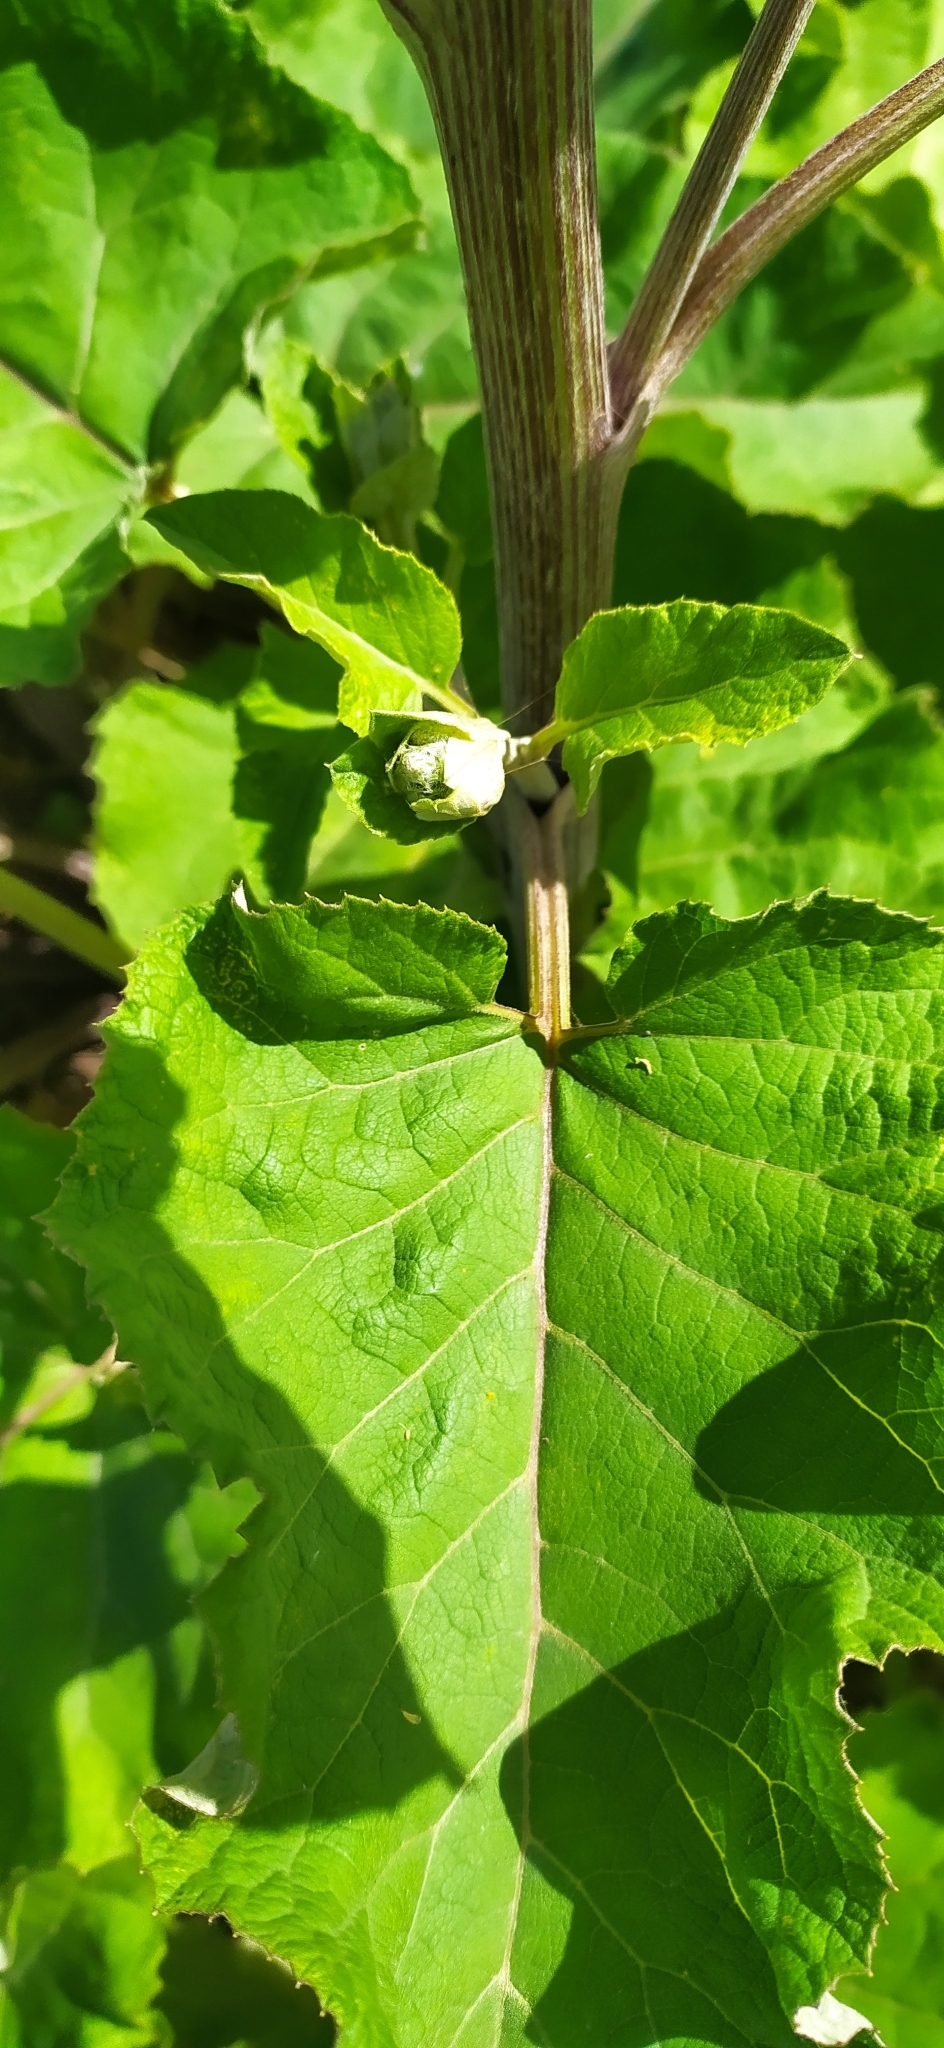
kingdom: Plantae
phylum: Tracheophyta
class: Magnoliopsida
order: Asterales
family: Asteraceae
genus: Arctium
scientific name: Arctium tomentosum
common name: Woolly burdock
